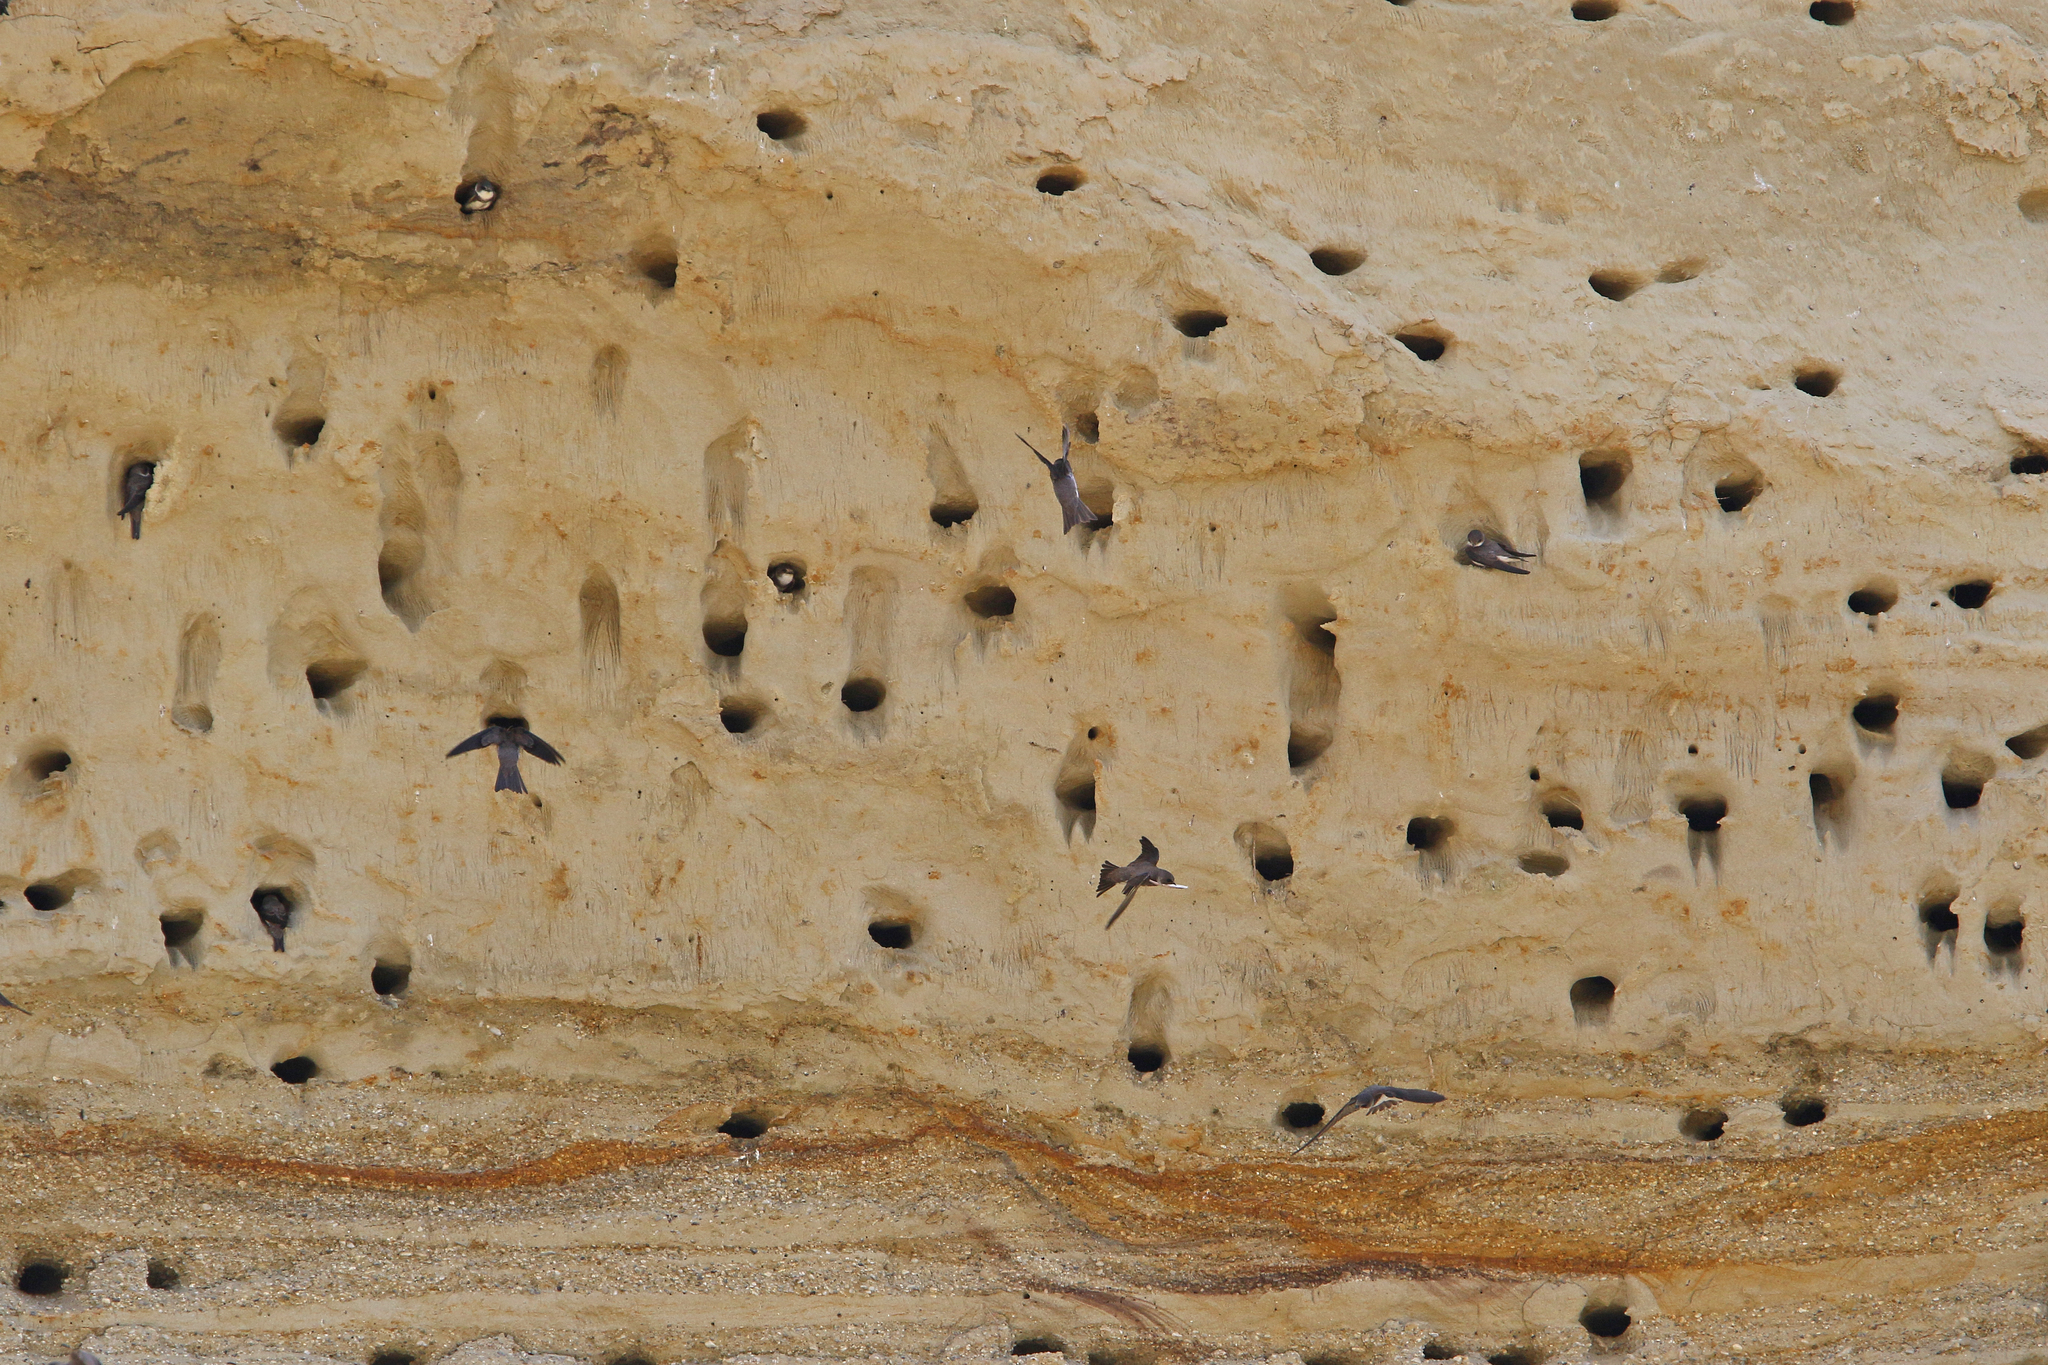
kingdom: Animalia
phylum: Chordata
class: Aves
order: Passeriformes
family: Hirundinidae
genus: Riparia
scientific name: Riparia riparia
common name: Sand martin
